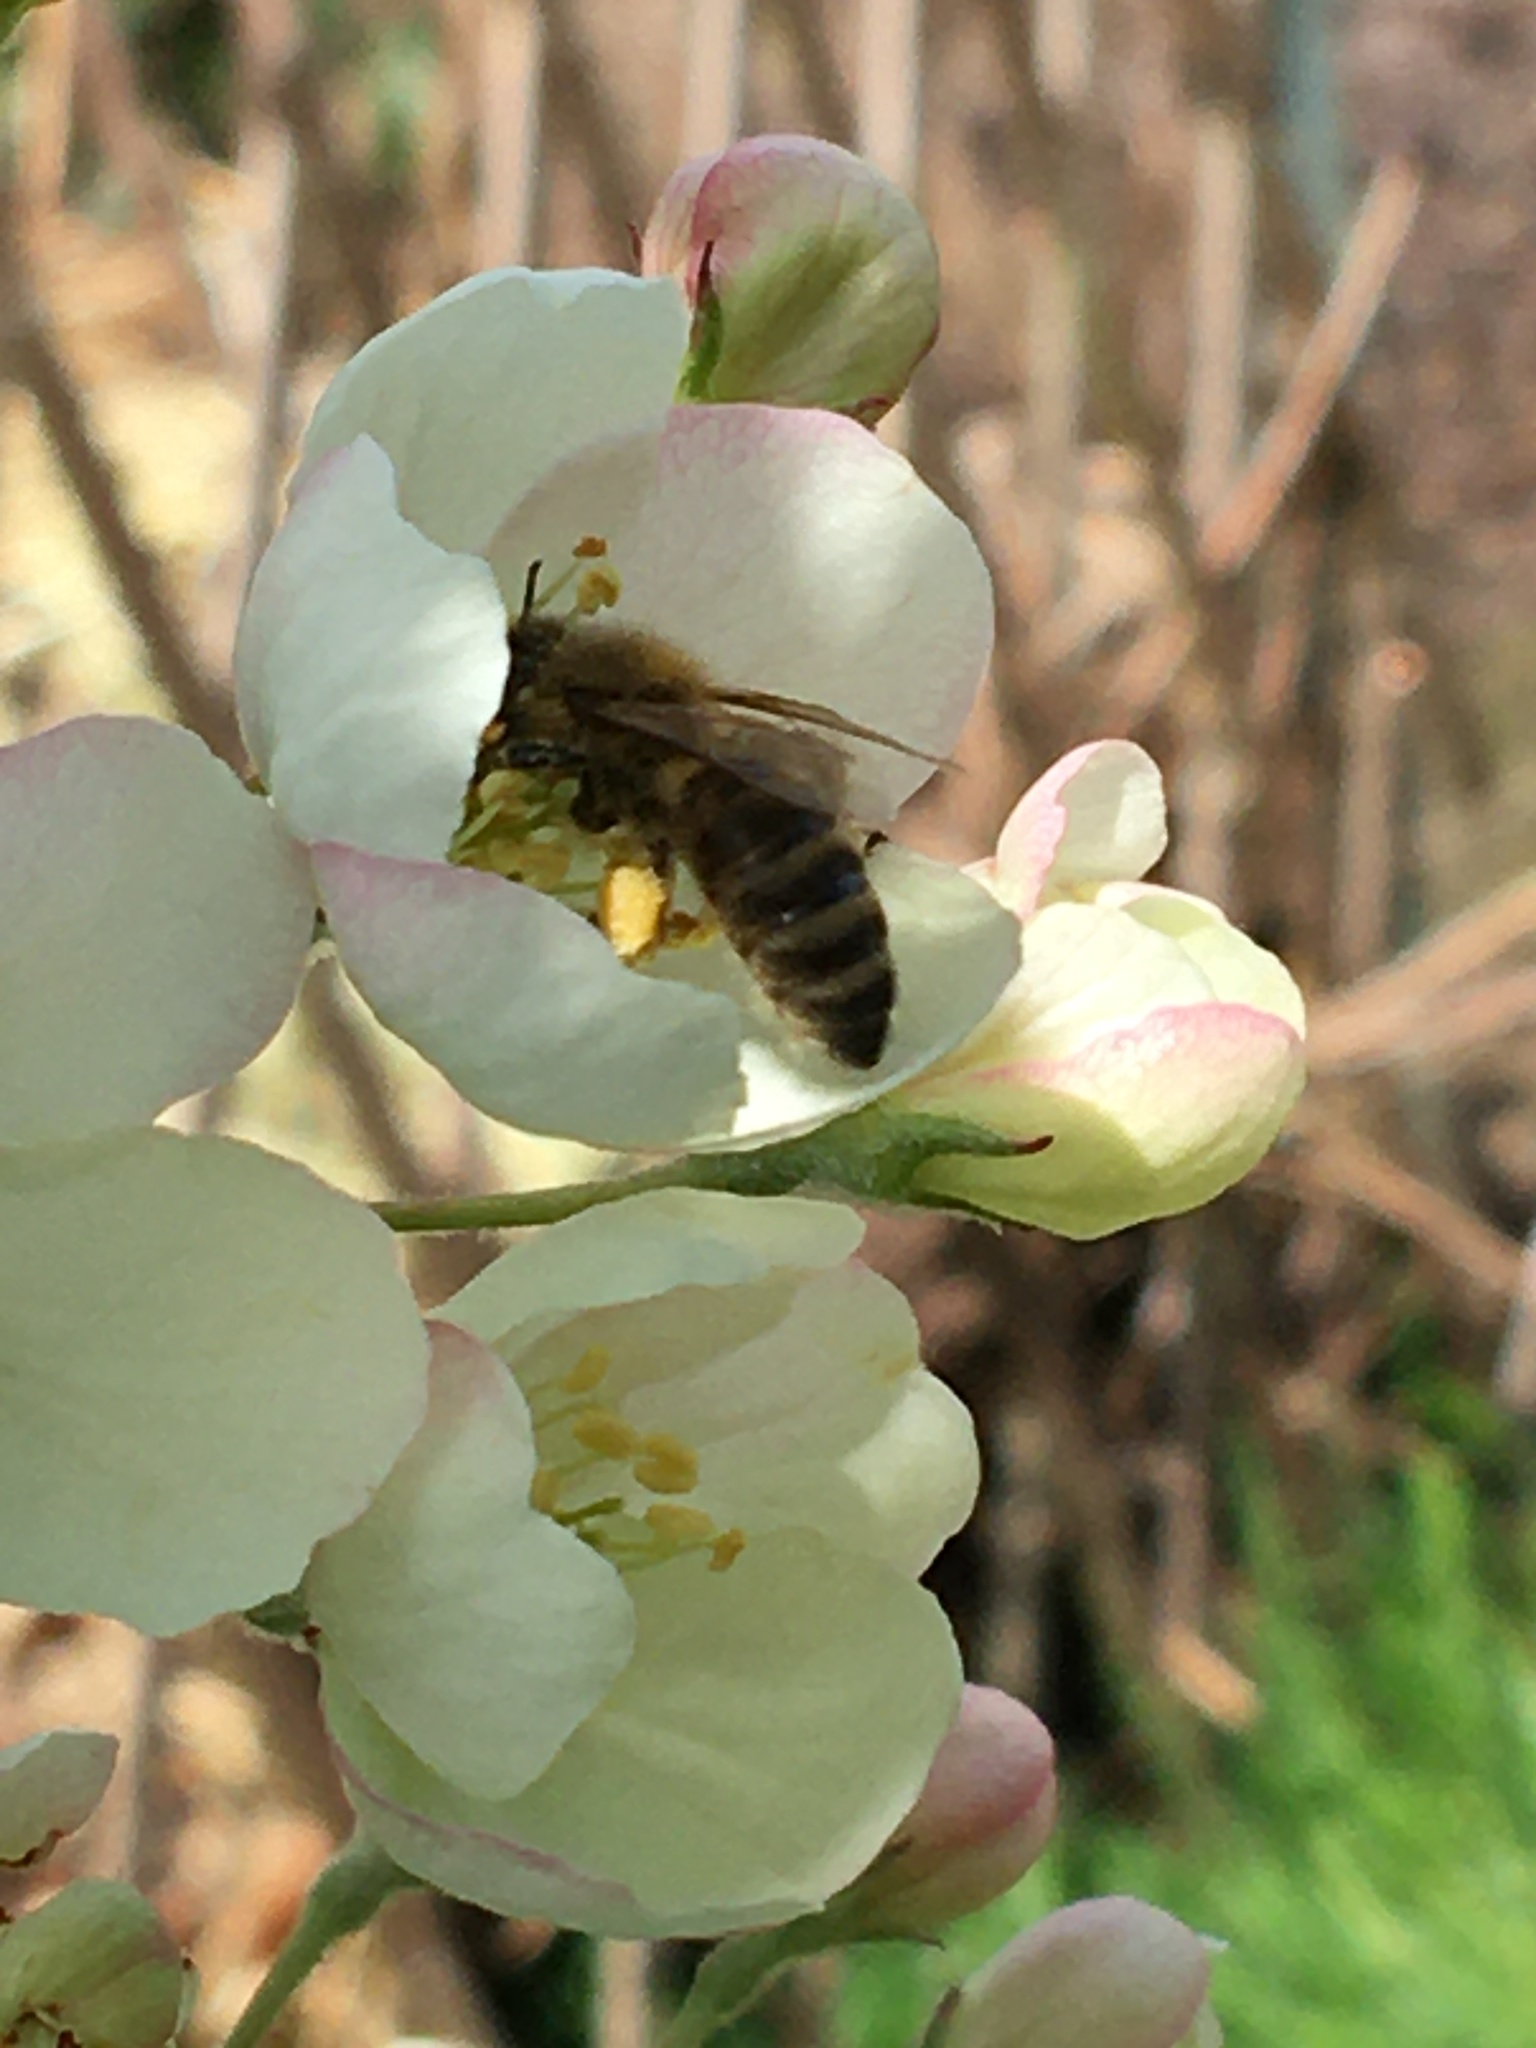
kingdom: Animalia
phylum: Arthropoda
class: Insecta
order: Hymenoptera
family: Apidae
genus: Apis
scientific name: Apis mellifera
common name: Honey bee
